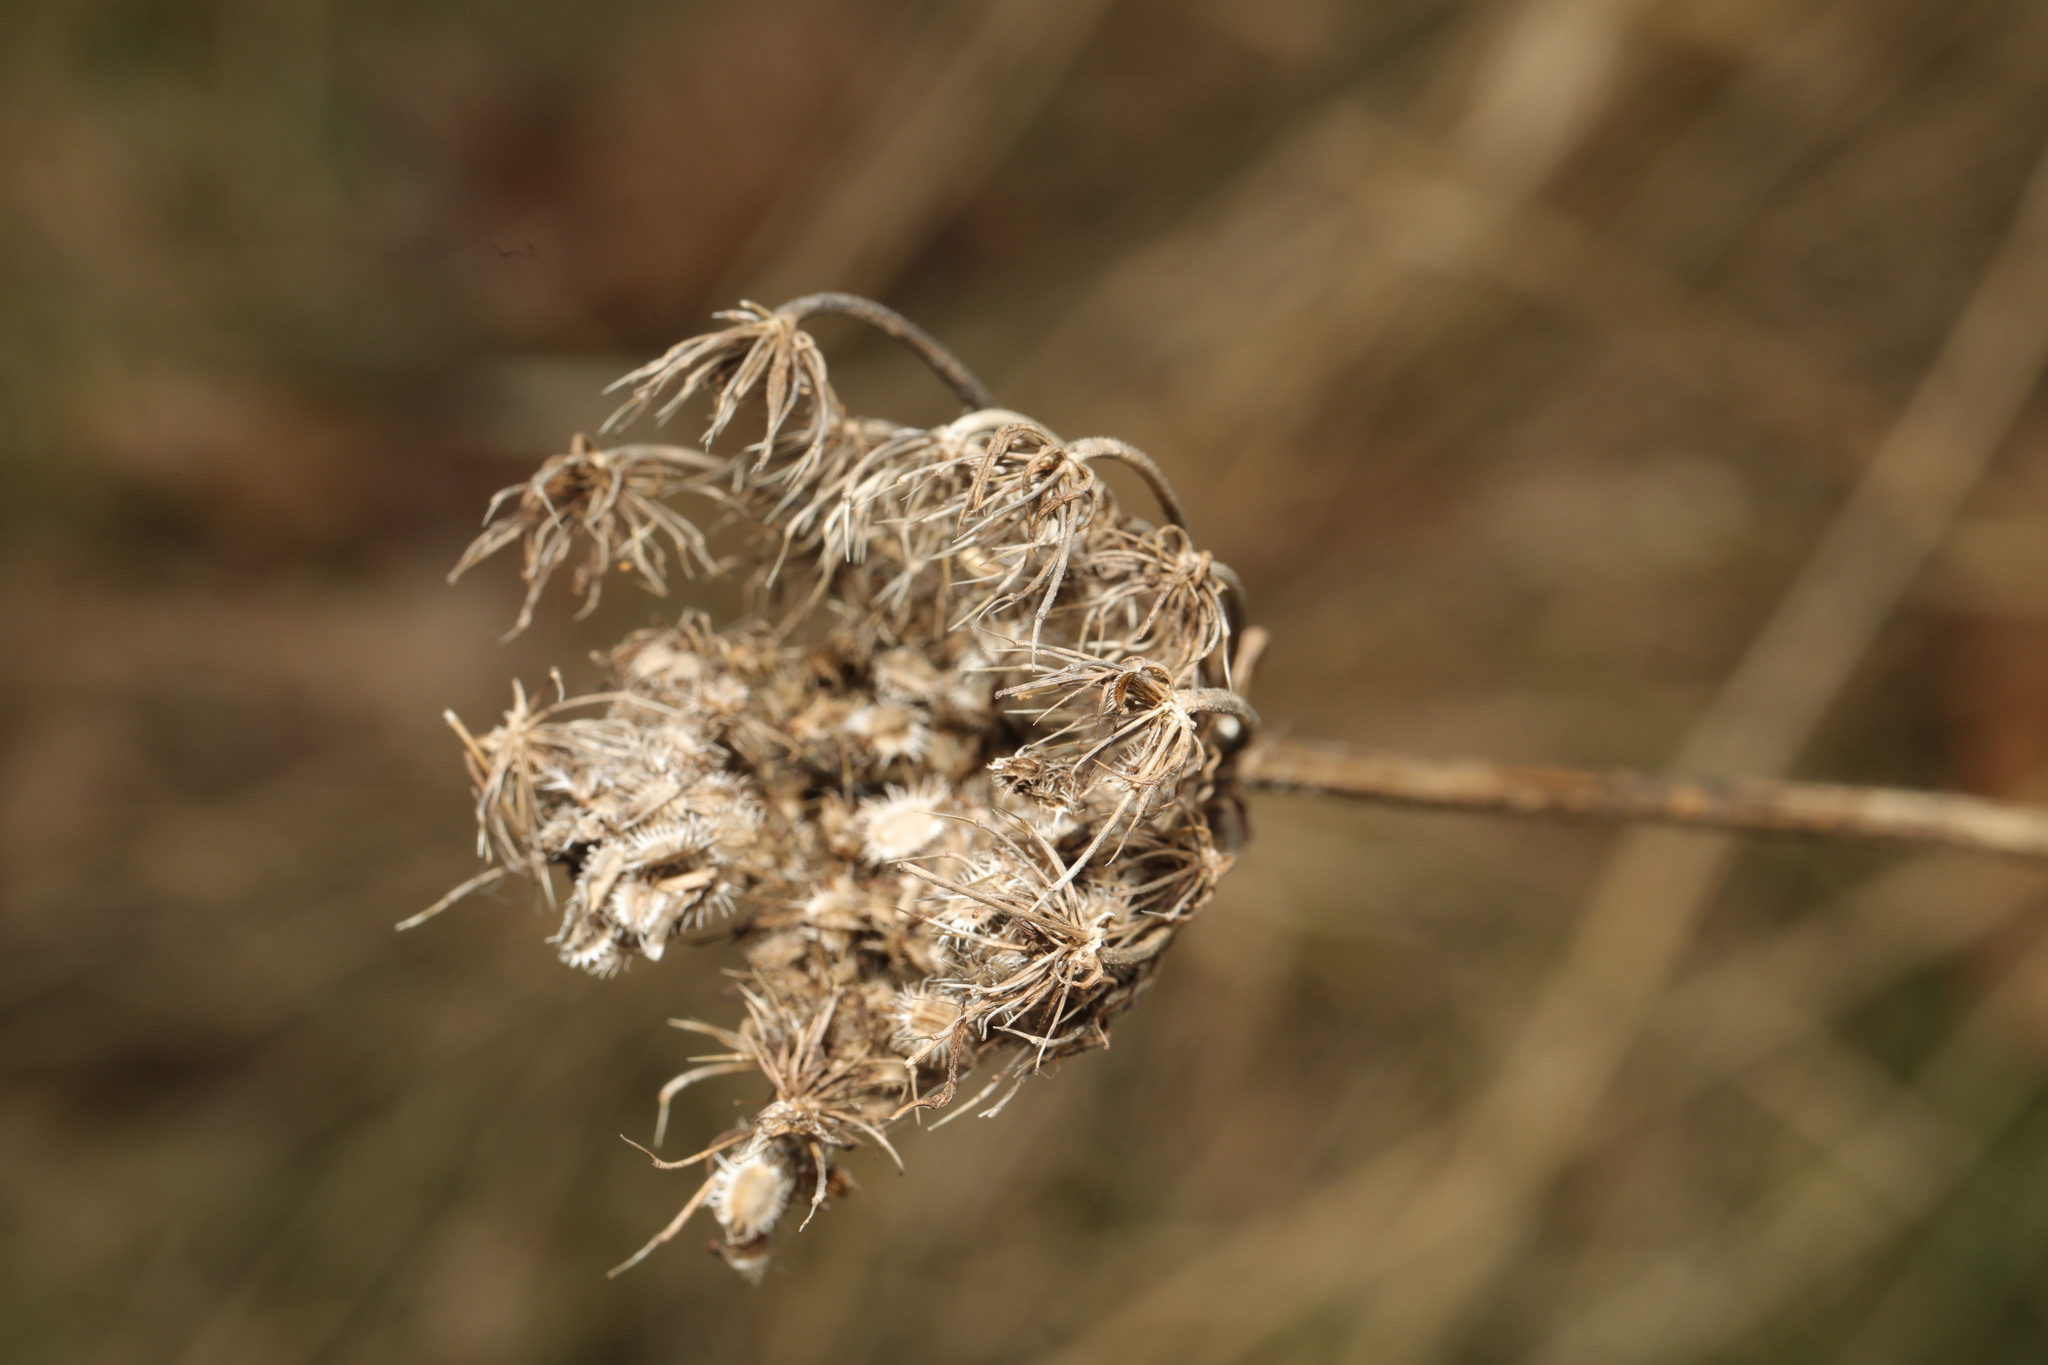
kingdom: Plantae
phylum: Tracheophyta
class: Magnoliopsida
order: Apiales
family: Apiaceae
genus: Daucus
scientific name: Daucus carota
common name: Wild carrot
